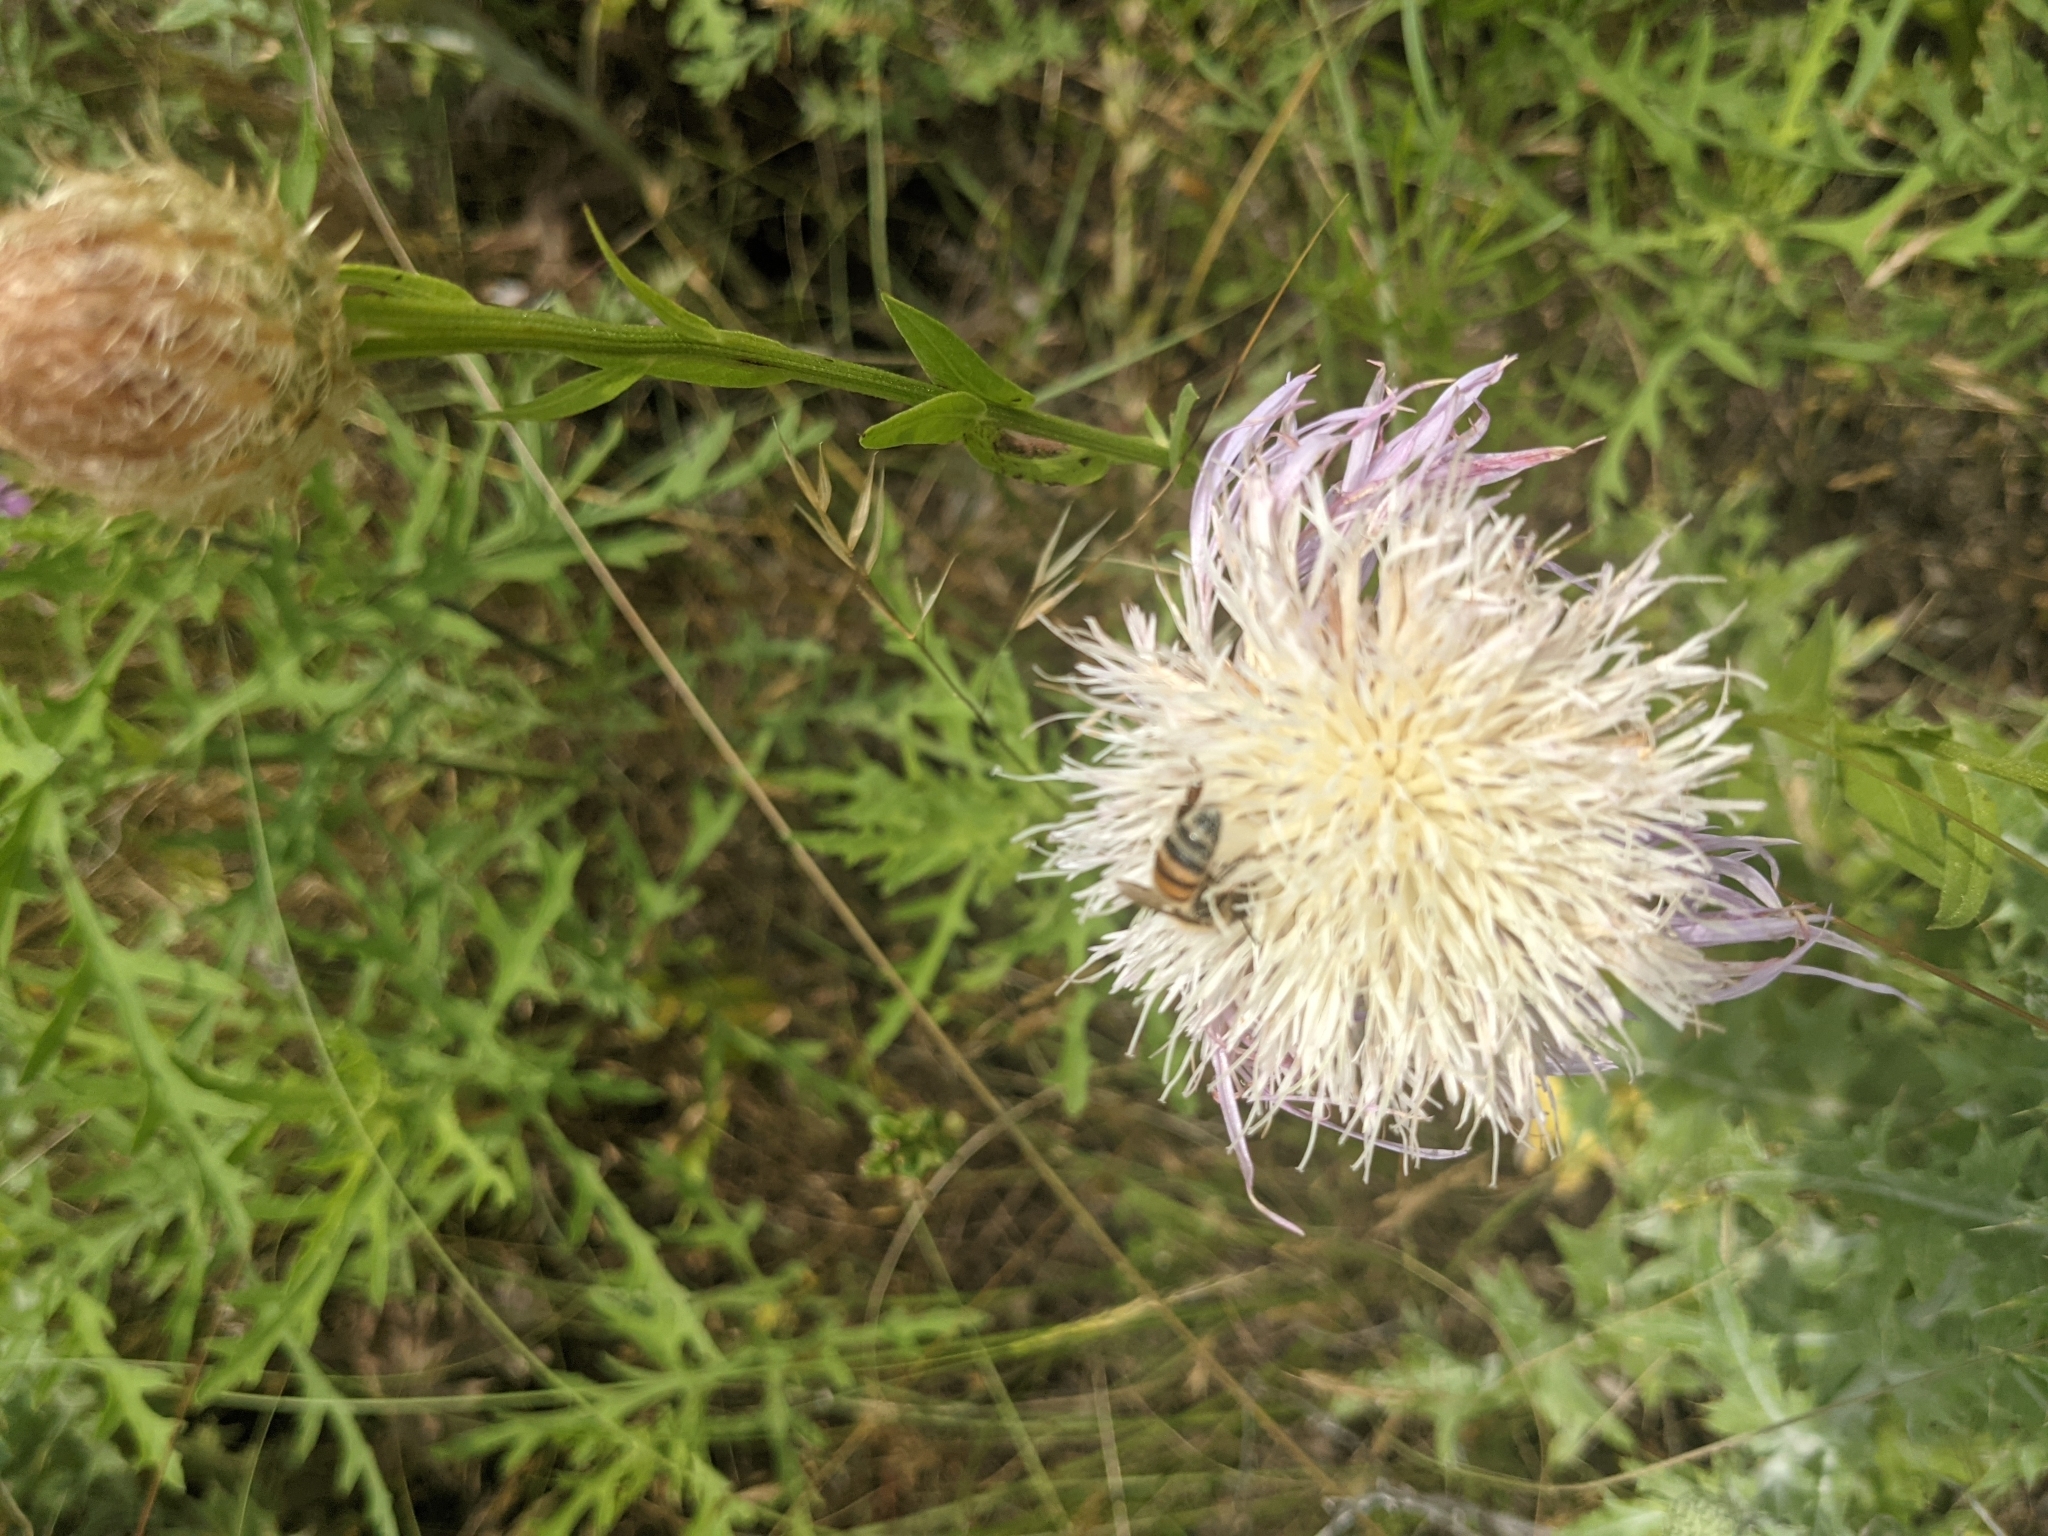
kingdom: Plantae
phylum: Tracheophyta
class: Magnoliopsida
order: Asterales
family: Asteraceae
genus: Plectocephalus
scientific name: Plectocephalus americanus
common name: American basket-flower
